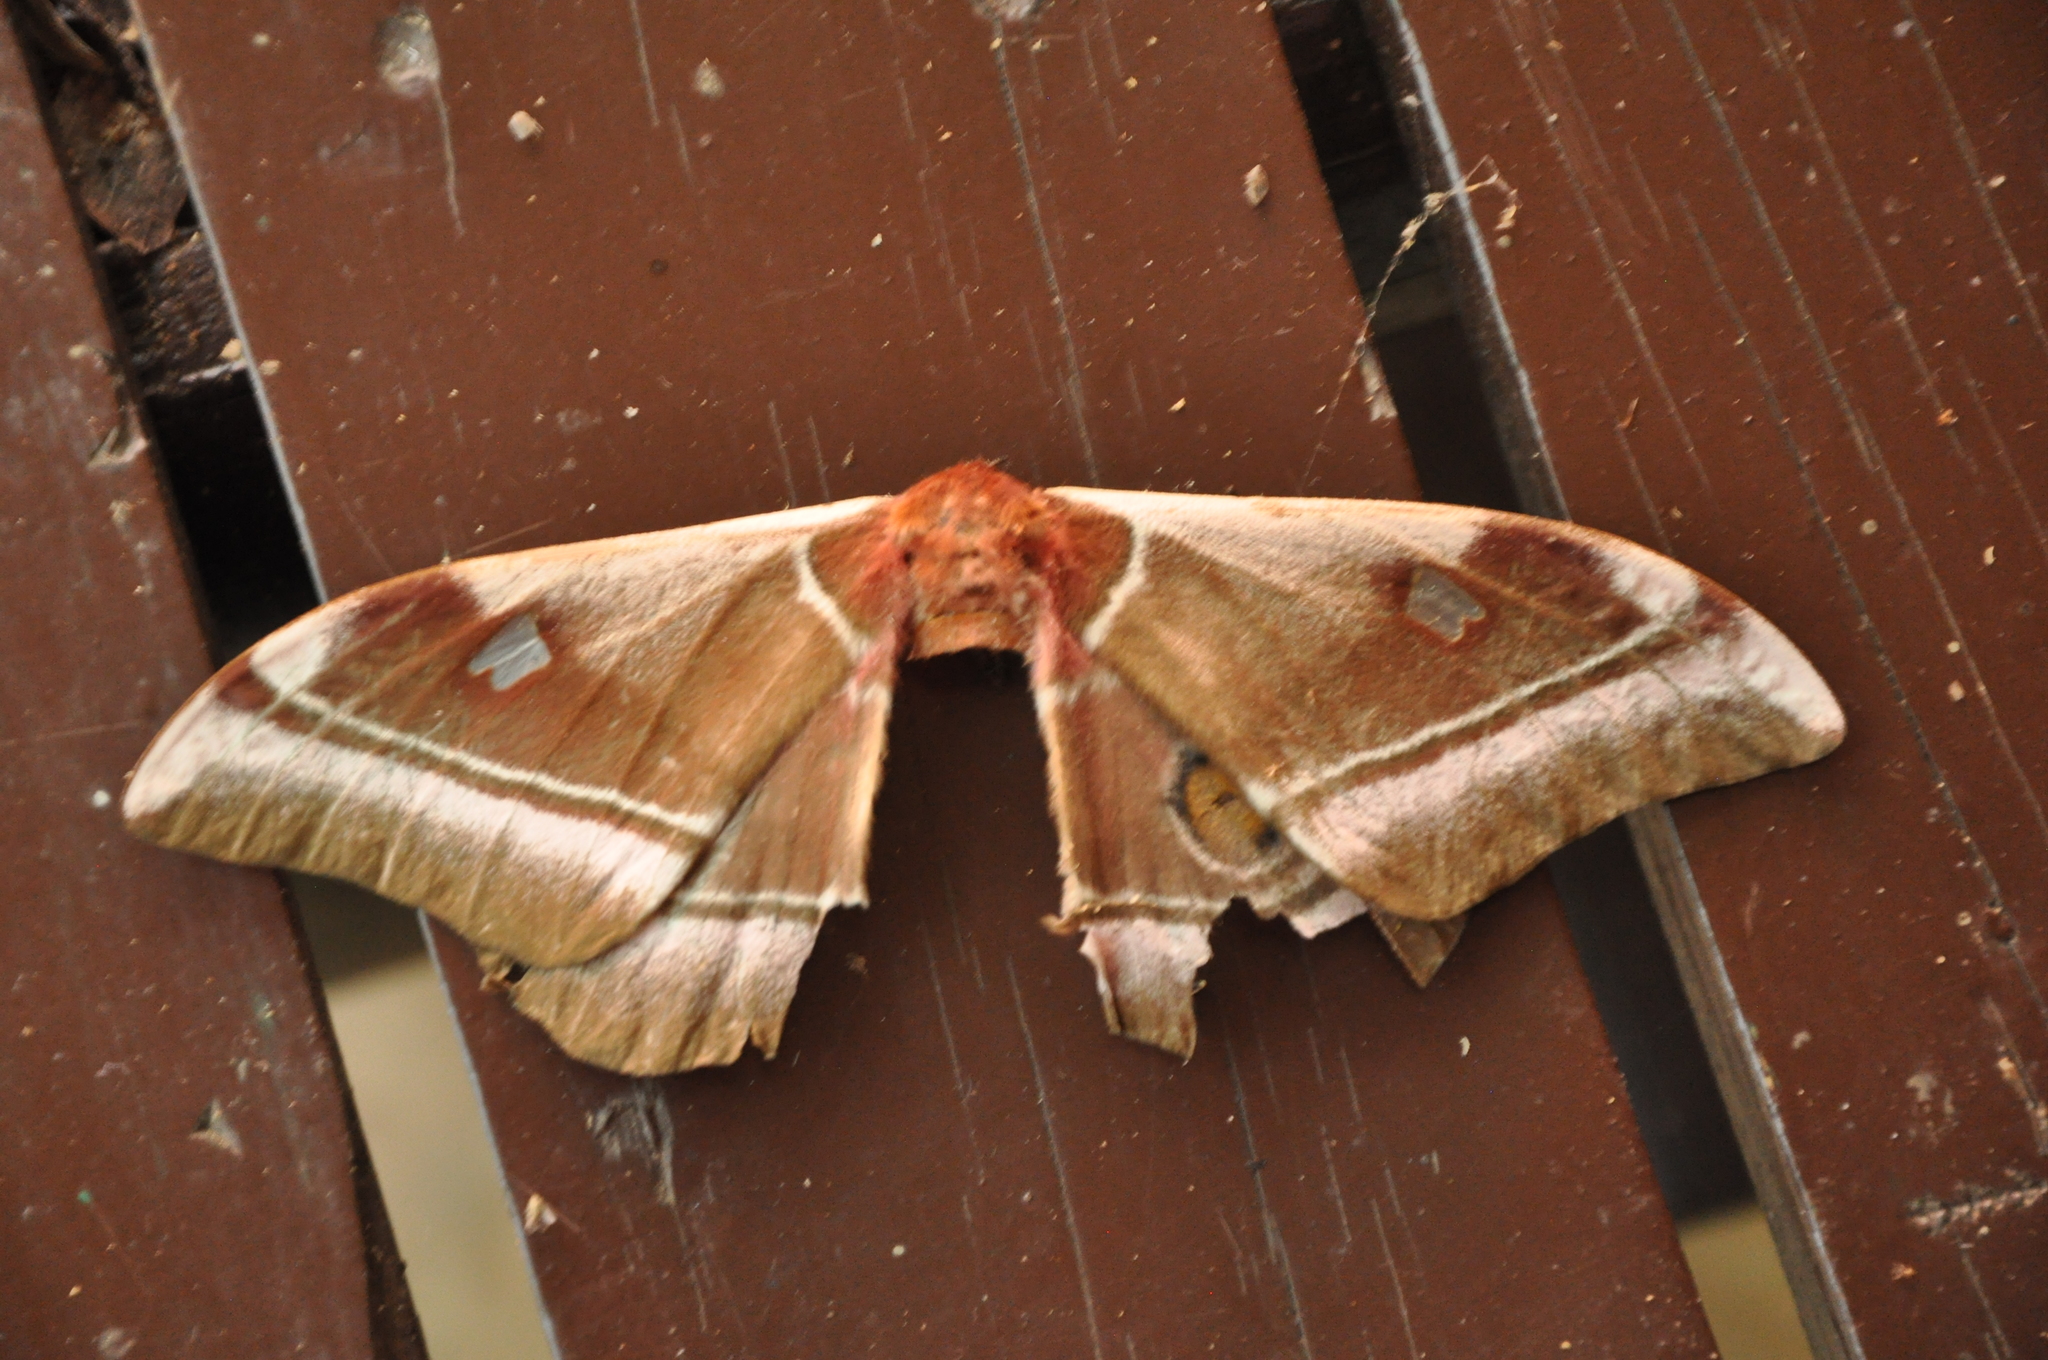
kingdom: Animalia
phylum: Arthropoda
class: Insecta
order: Lepidoptera
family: Saturniidae
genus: Bunaea
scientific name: Bunaea aslauga
